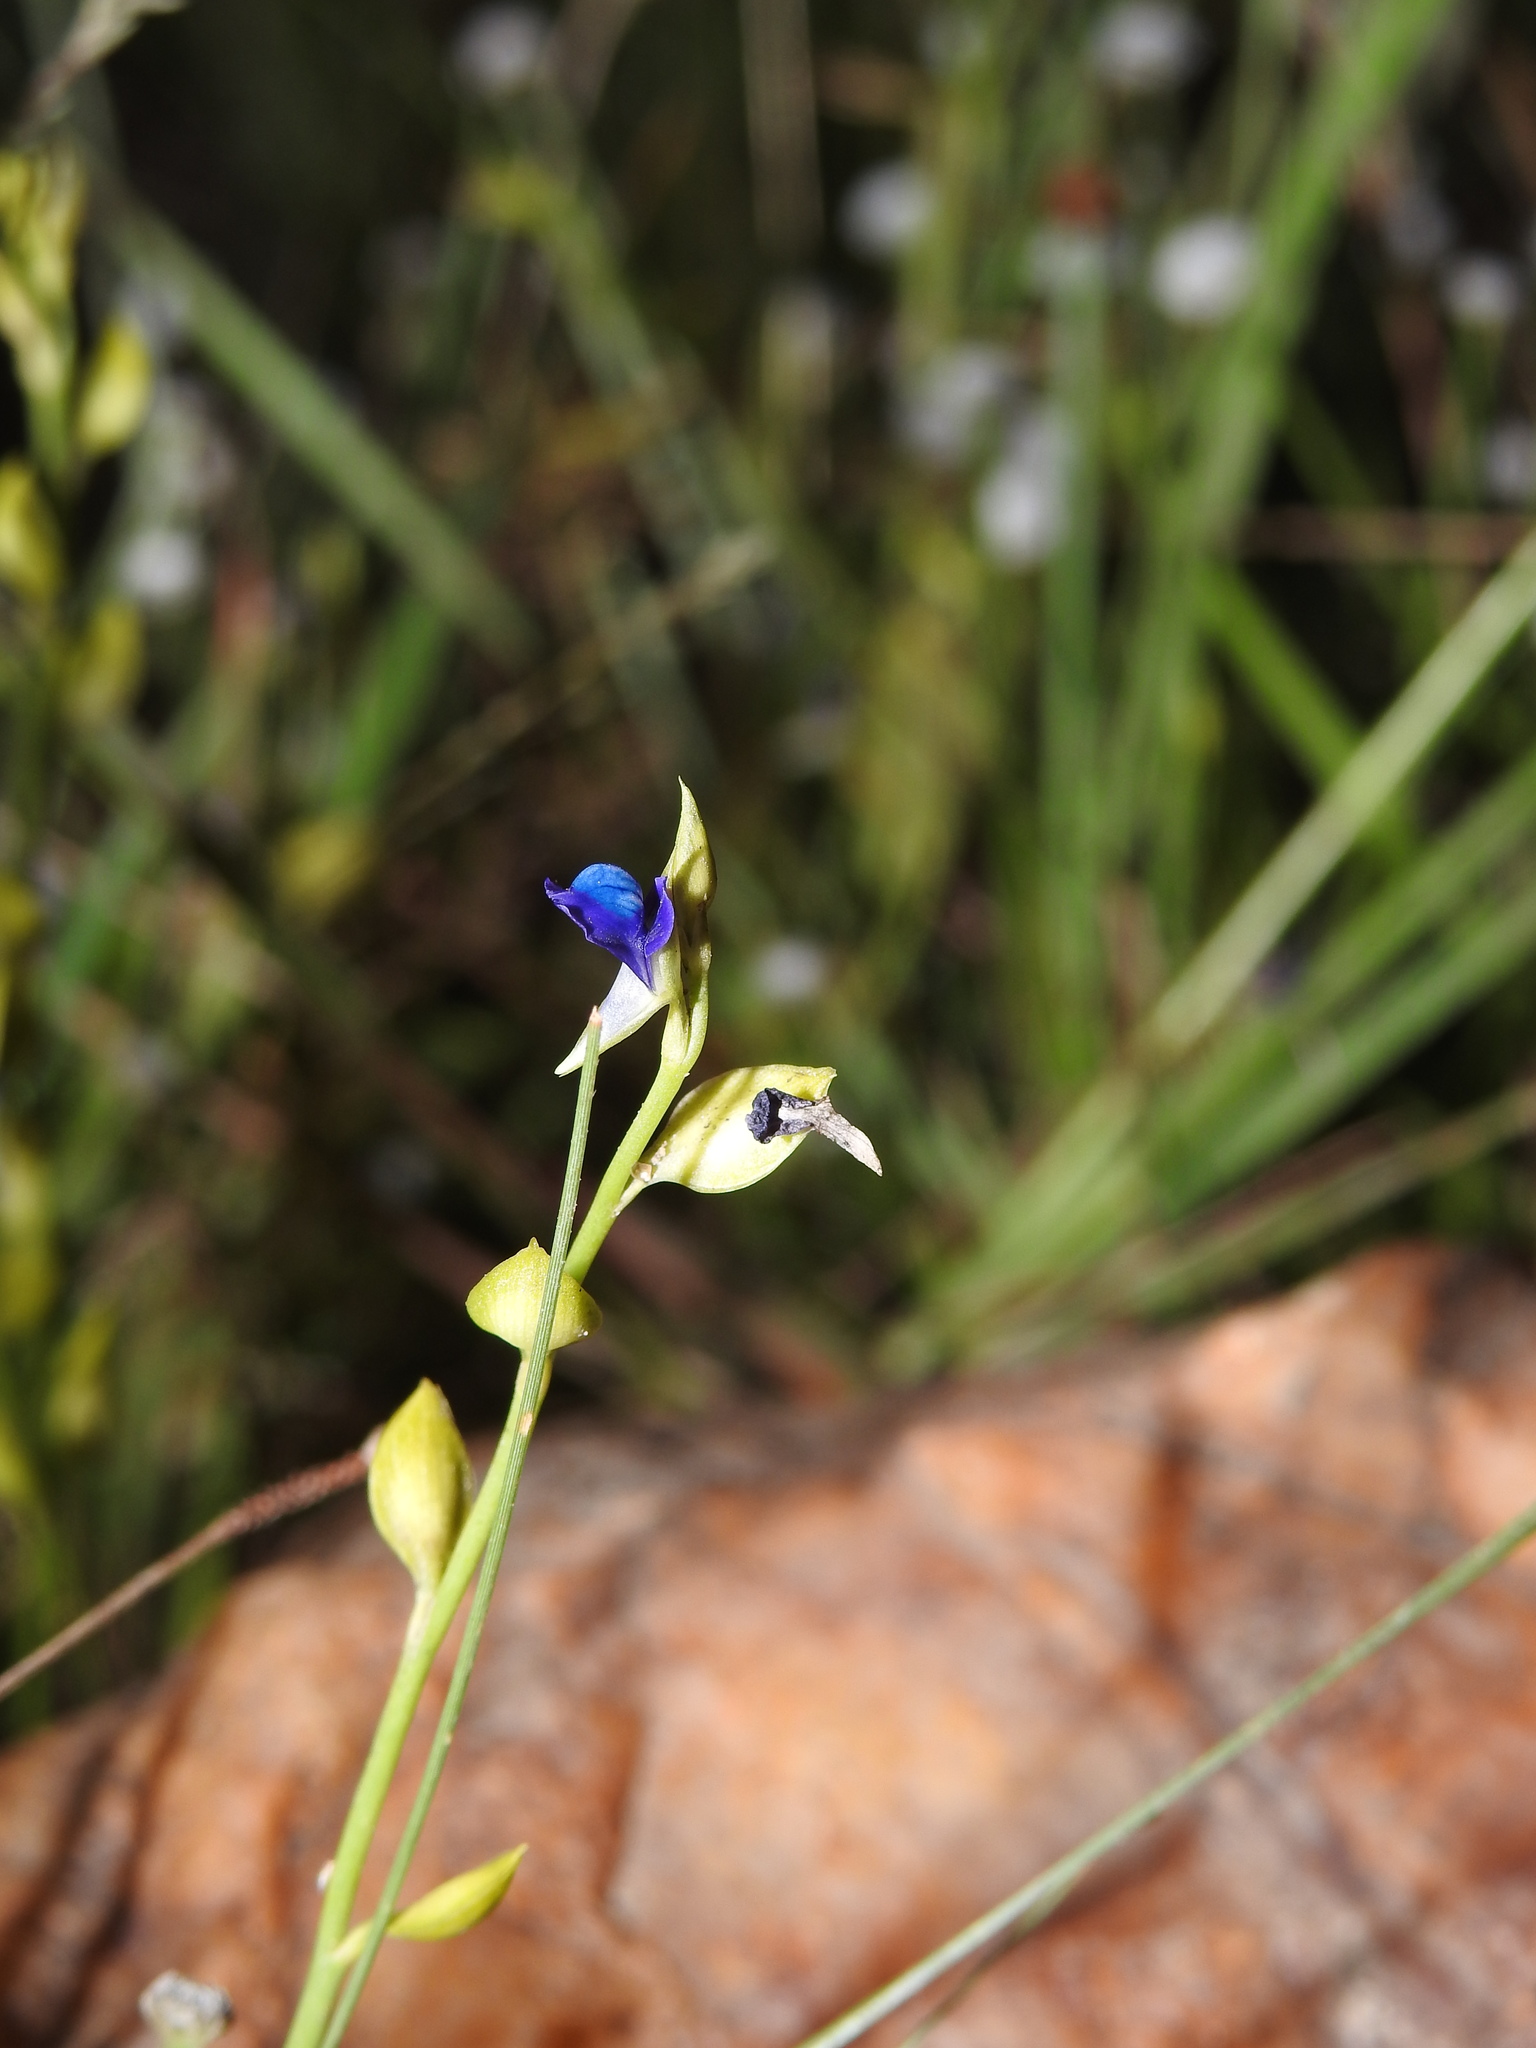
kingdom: Plantae
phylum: Tracheophyta
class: Magnoliopsida
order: Lamiales
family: Lentibulariaceae
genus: Utricularia
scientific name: Utricularia polygaloides
